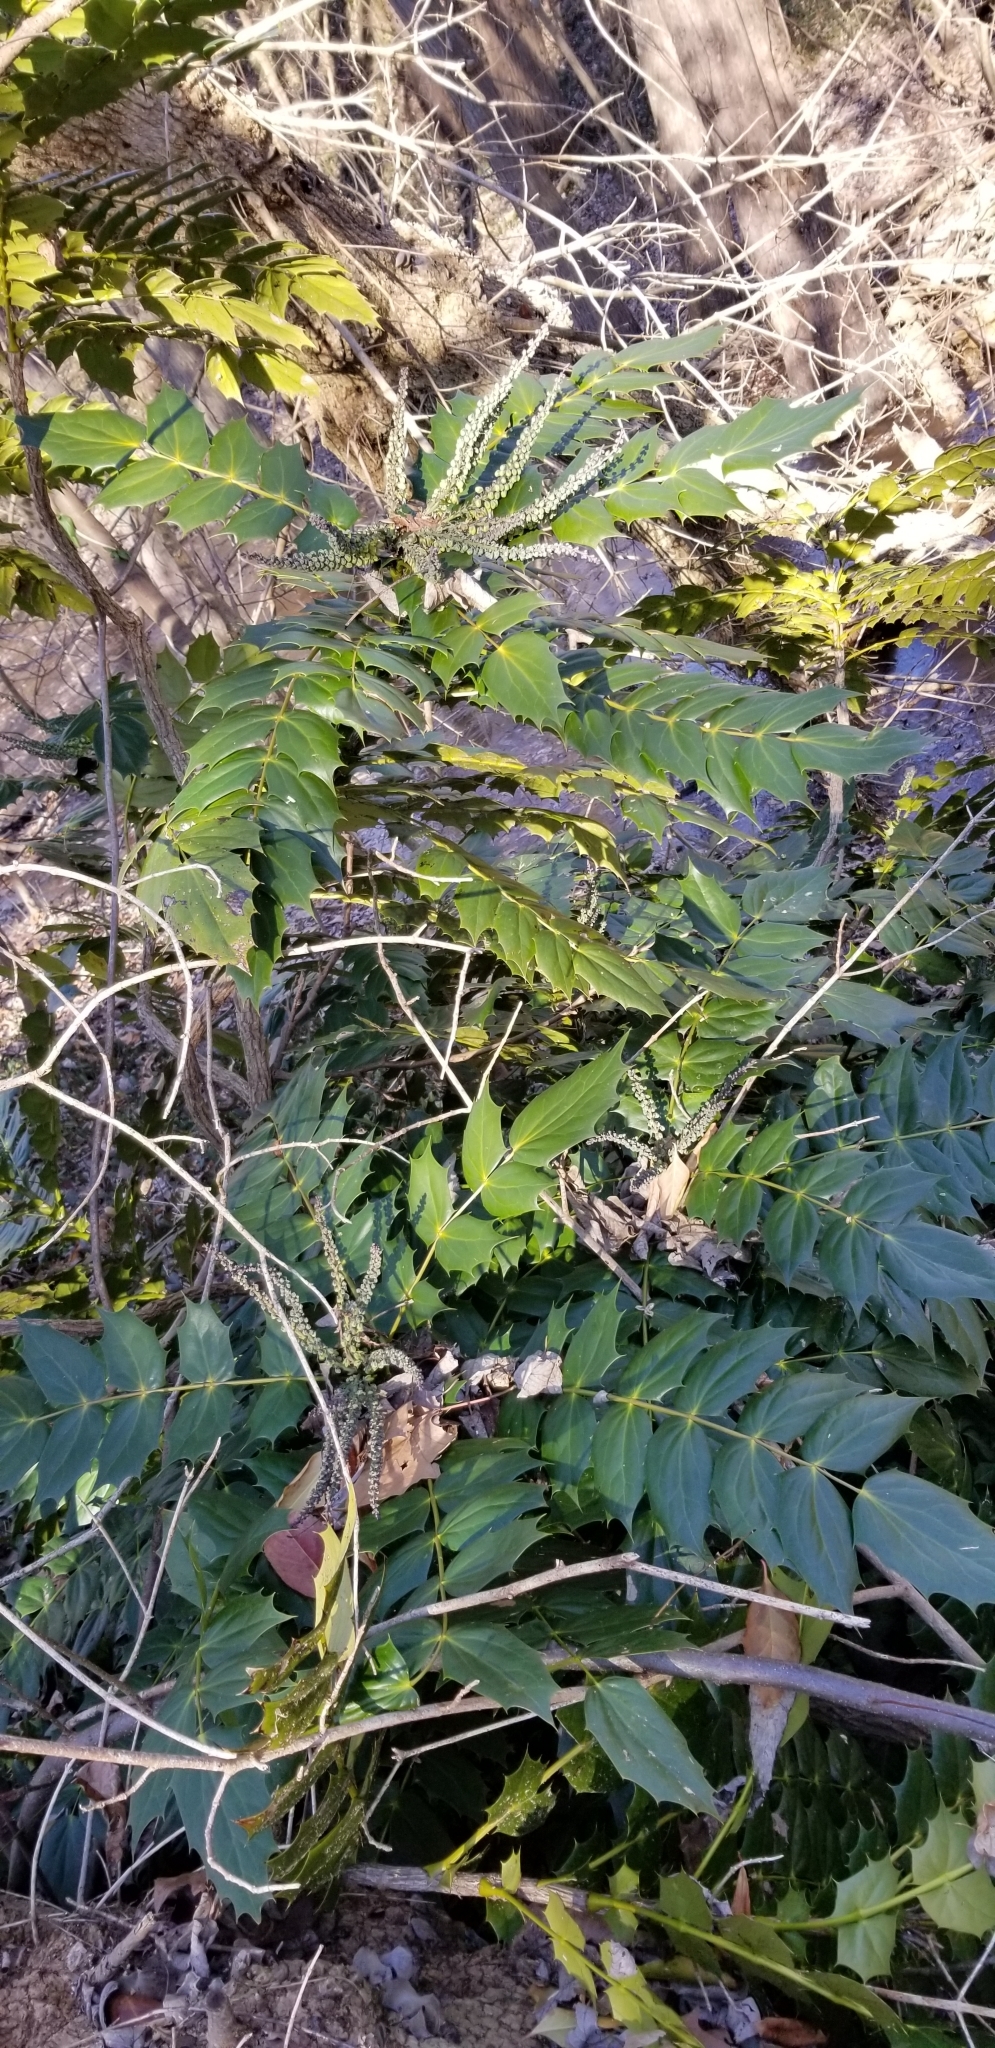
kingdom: Plantae
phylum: Tracheophyta
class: Magnoliopsida
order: Ranunculales
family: Berberidaceae
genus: Mahonia
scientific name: Mahonia bealei
